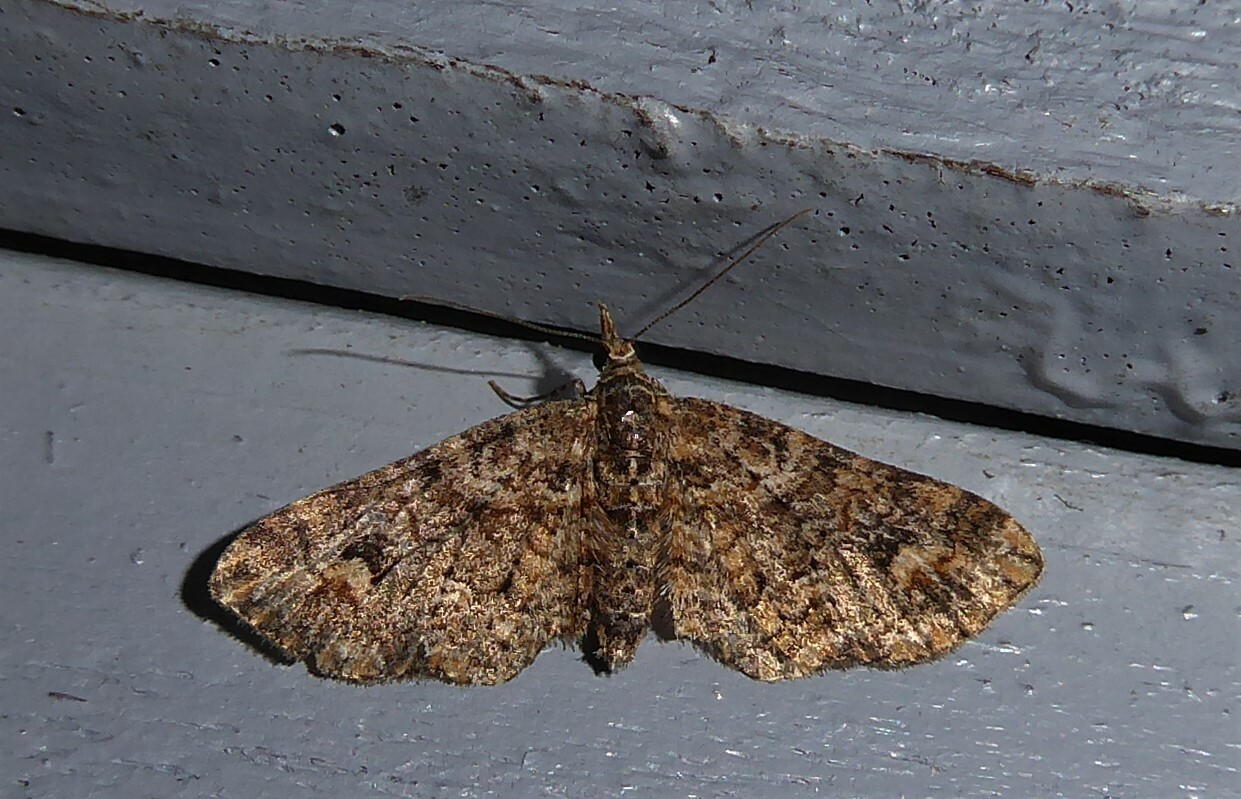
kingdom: Animalia
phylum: Arthropoda
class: Insecta
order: Lepidoptera
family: Geometridae
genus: Pasiphilodes
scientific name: Pasiphilodes testulata
